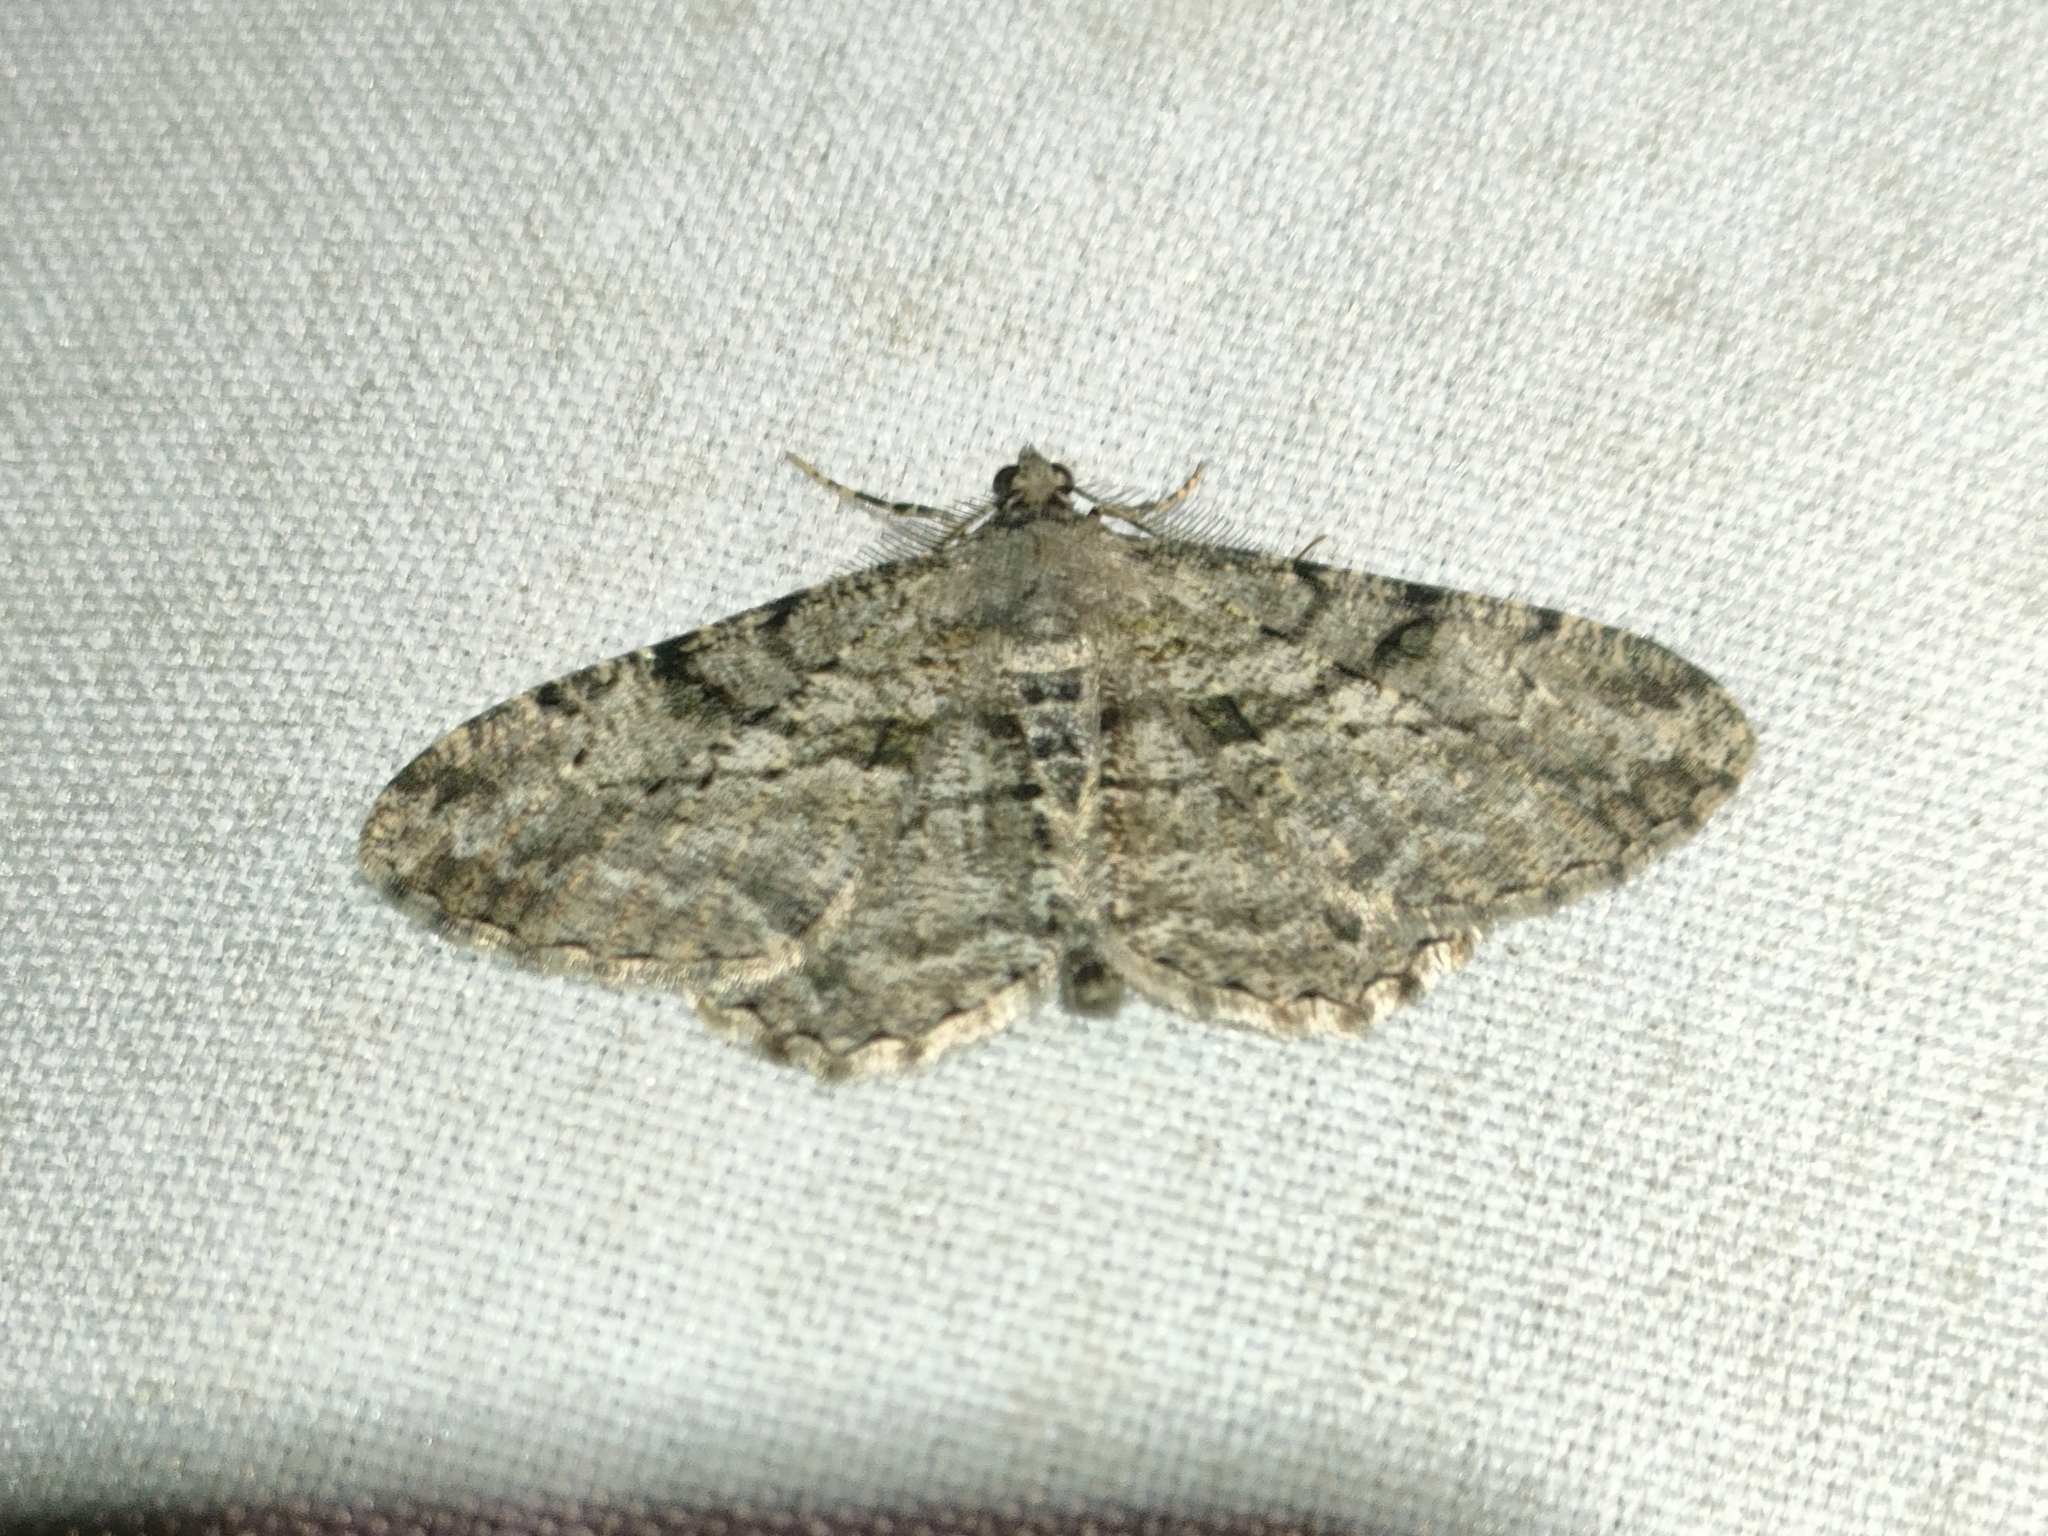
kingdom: Animalia
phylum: Arthropoda
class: Insecta
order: Lepidoptera
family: Geometridae
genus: Peribatodes
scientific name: Peribatodes rhomboidaria
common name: Willow beauty
